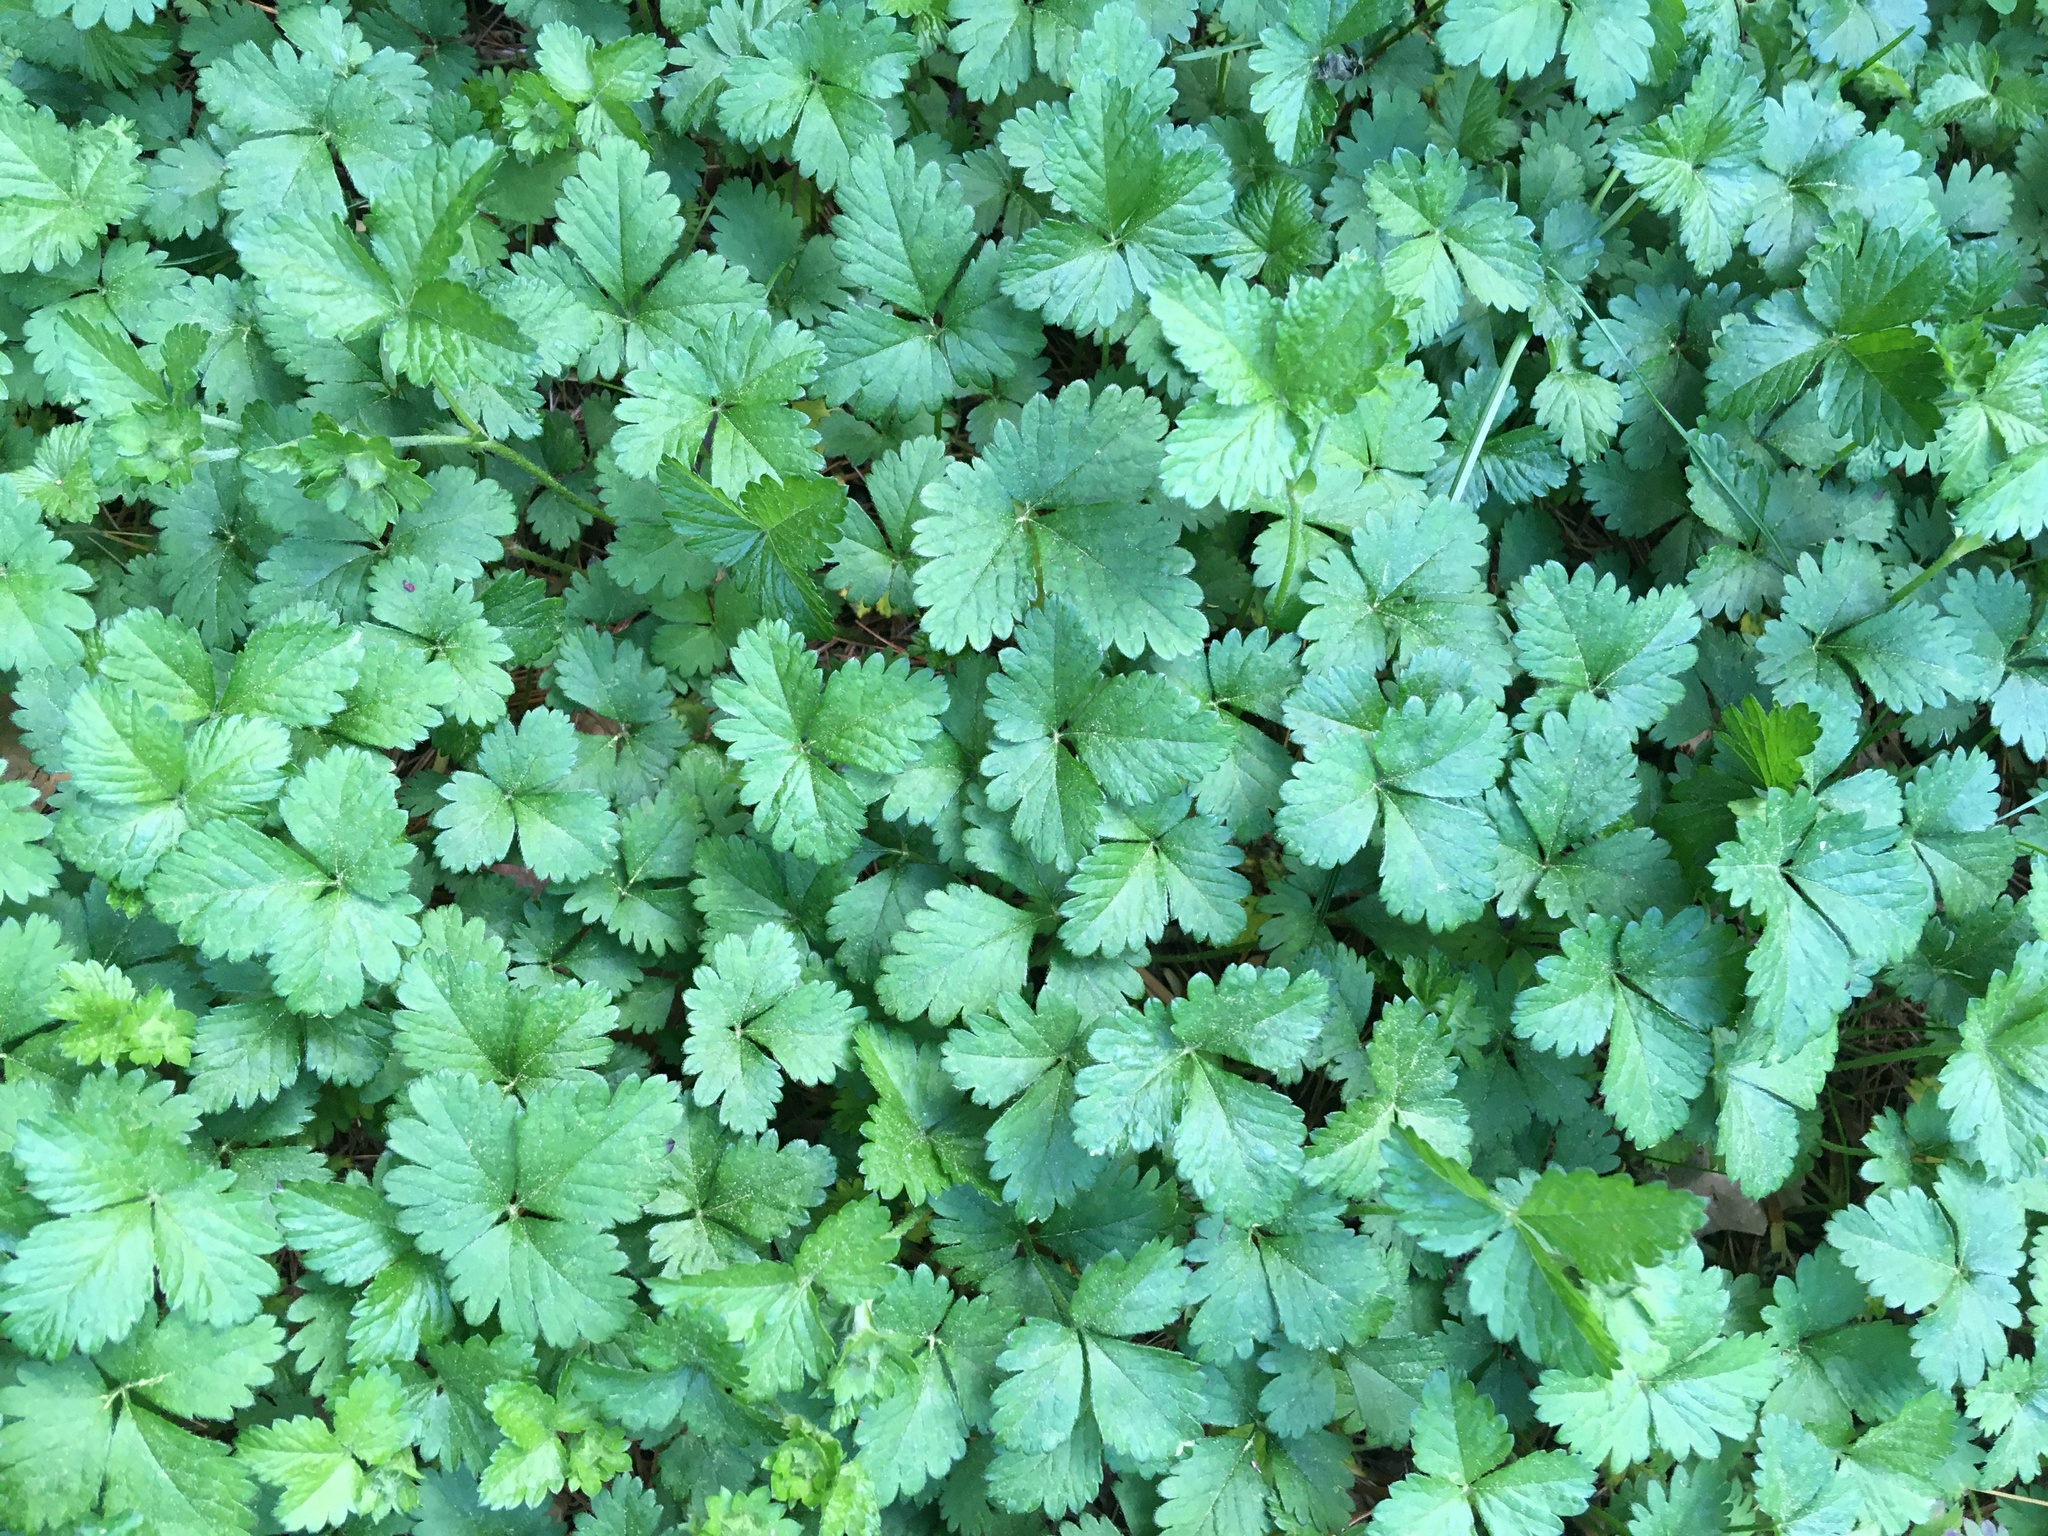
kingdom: Plantae
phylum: Tracheophyta
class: Magnoliopsida
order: Rosales
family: Rosaceae
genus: Potentilla
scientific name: Potentilla indica
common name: Yellow-flowered strawberry
